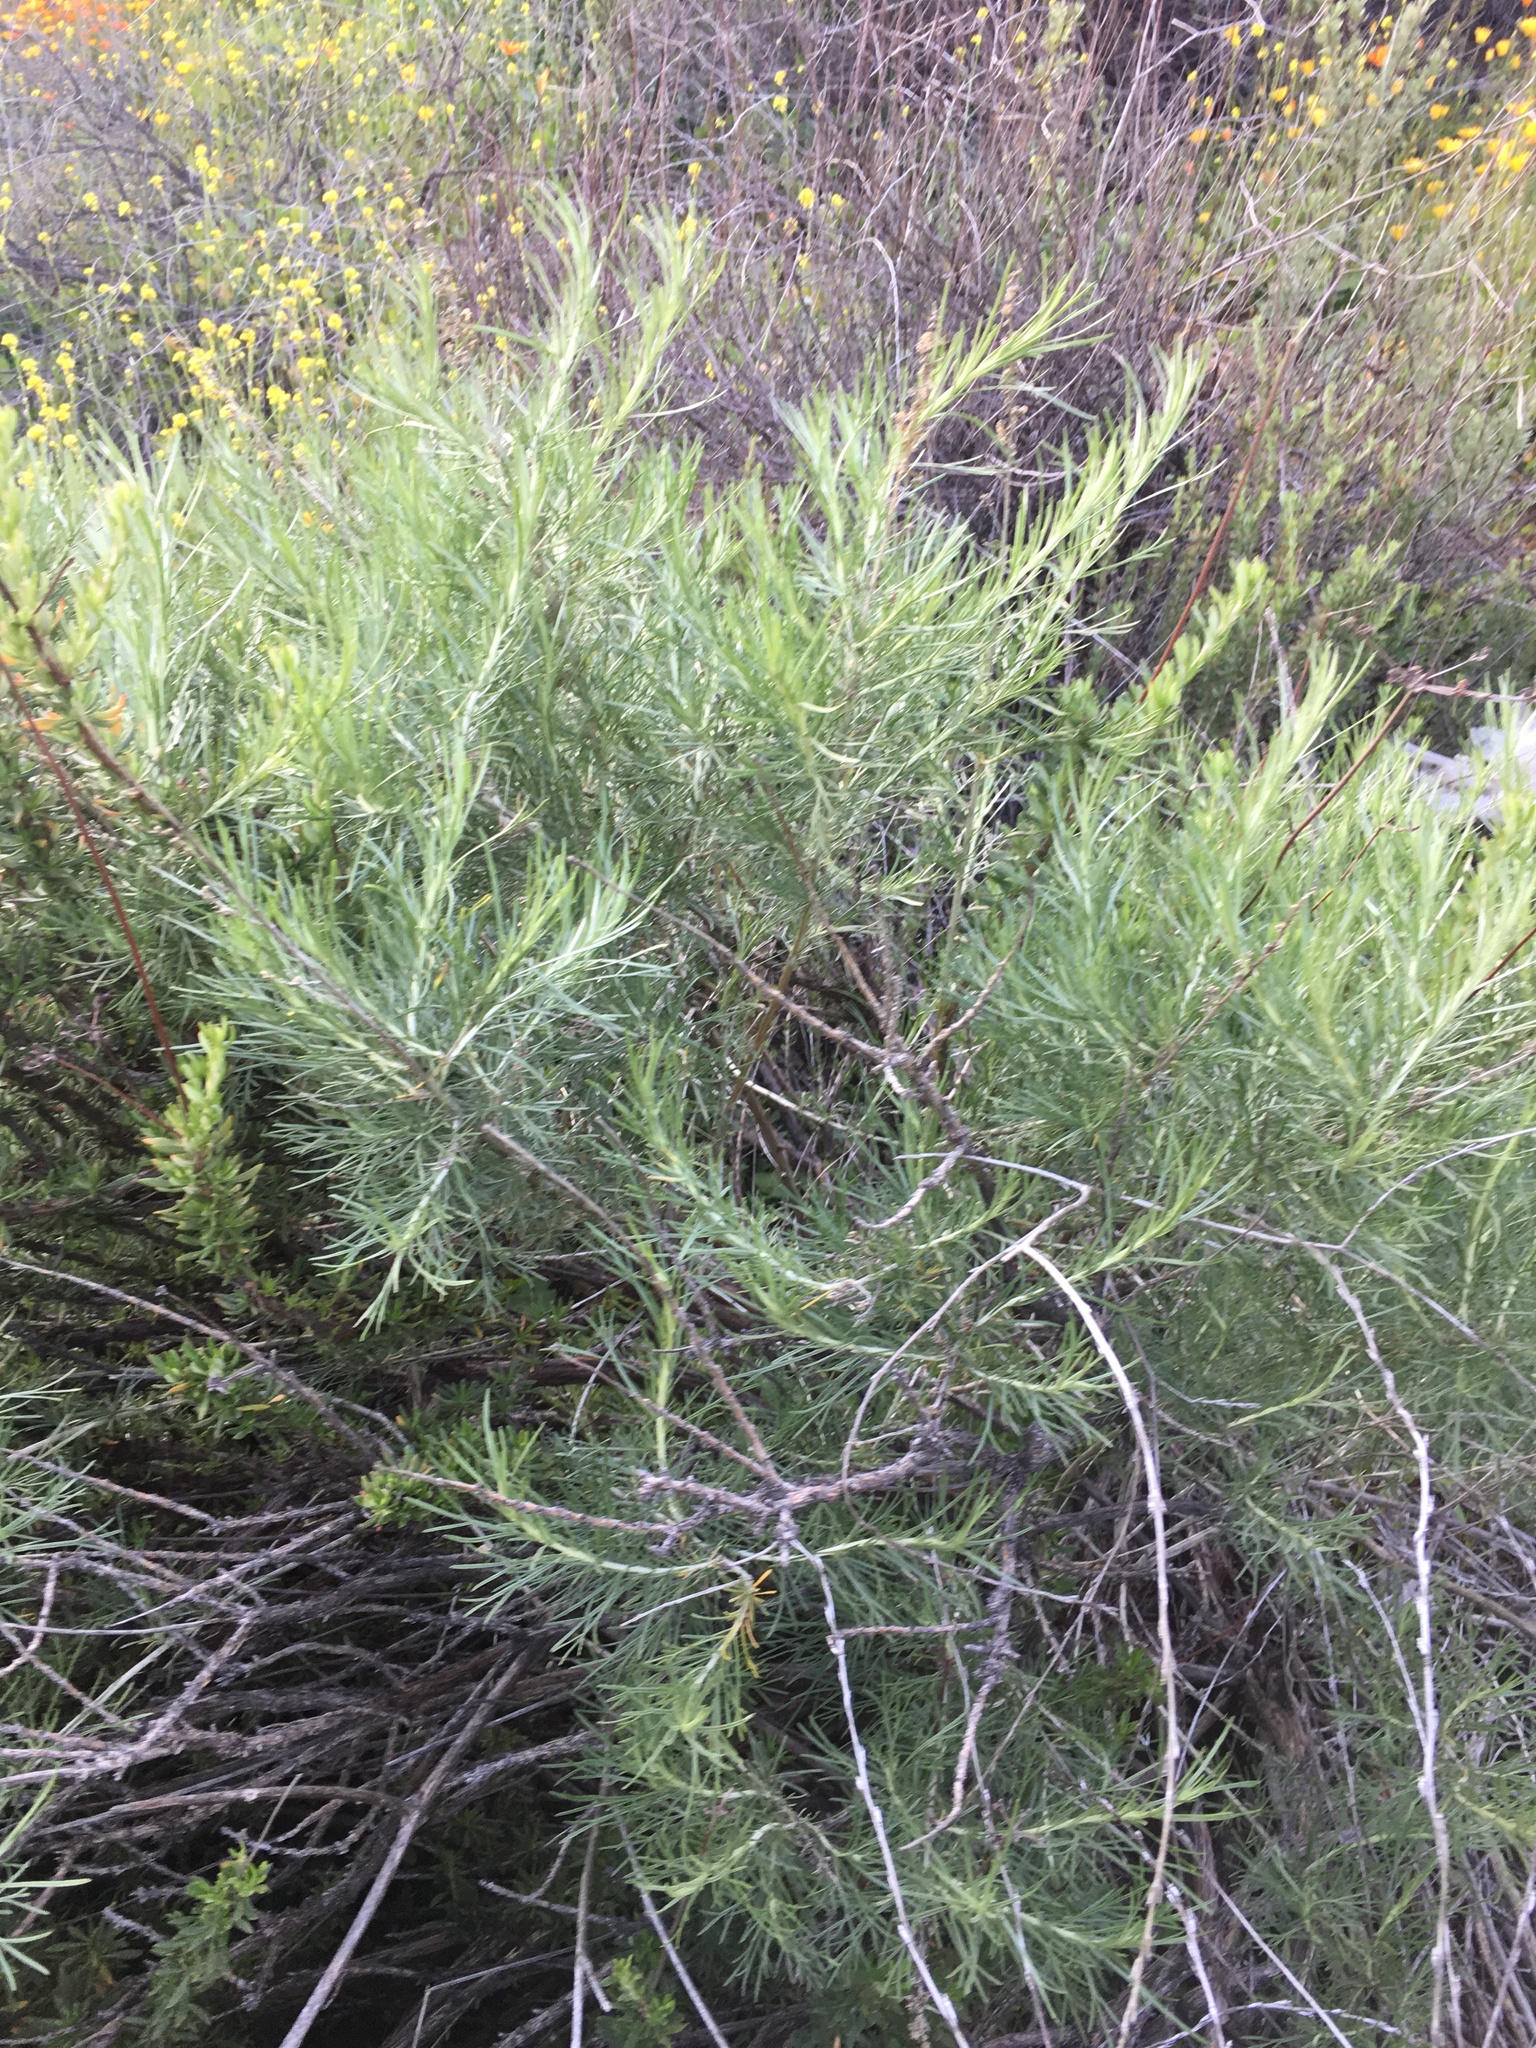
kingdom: Plantae
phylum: Tracheophyta
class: Magnoliopsida
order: Asterales
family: Asteraceae
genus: Artemisia
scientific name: Artemisia californica
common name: California sagebrush
